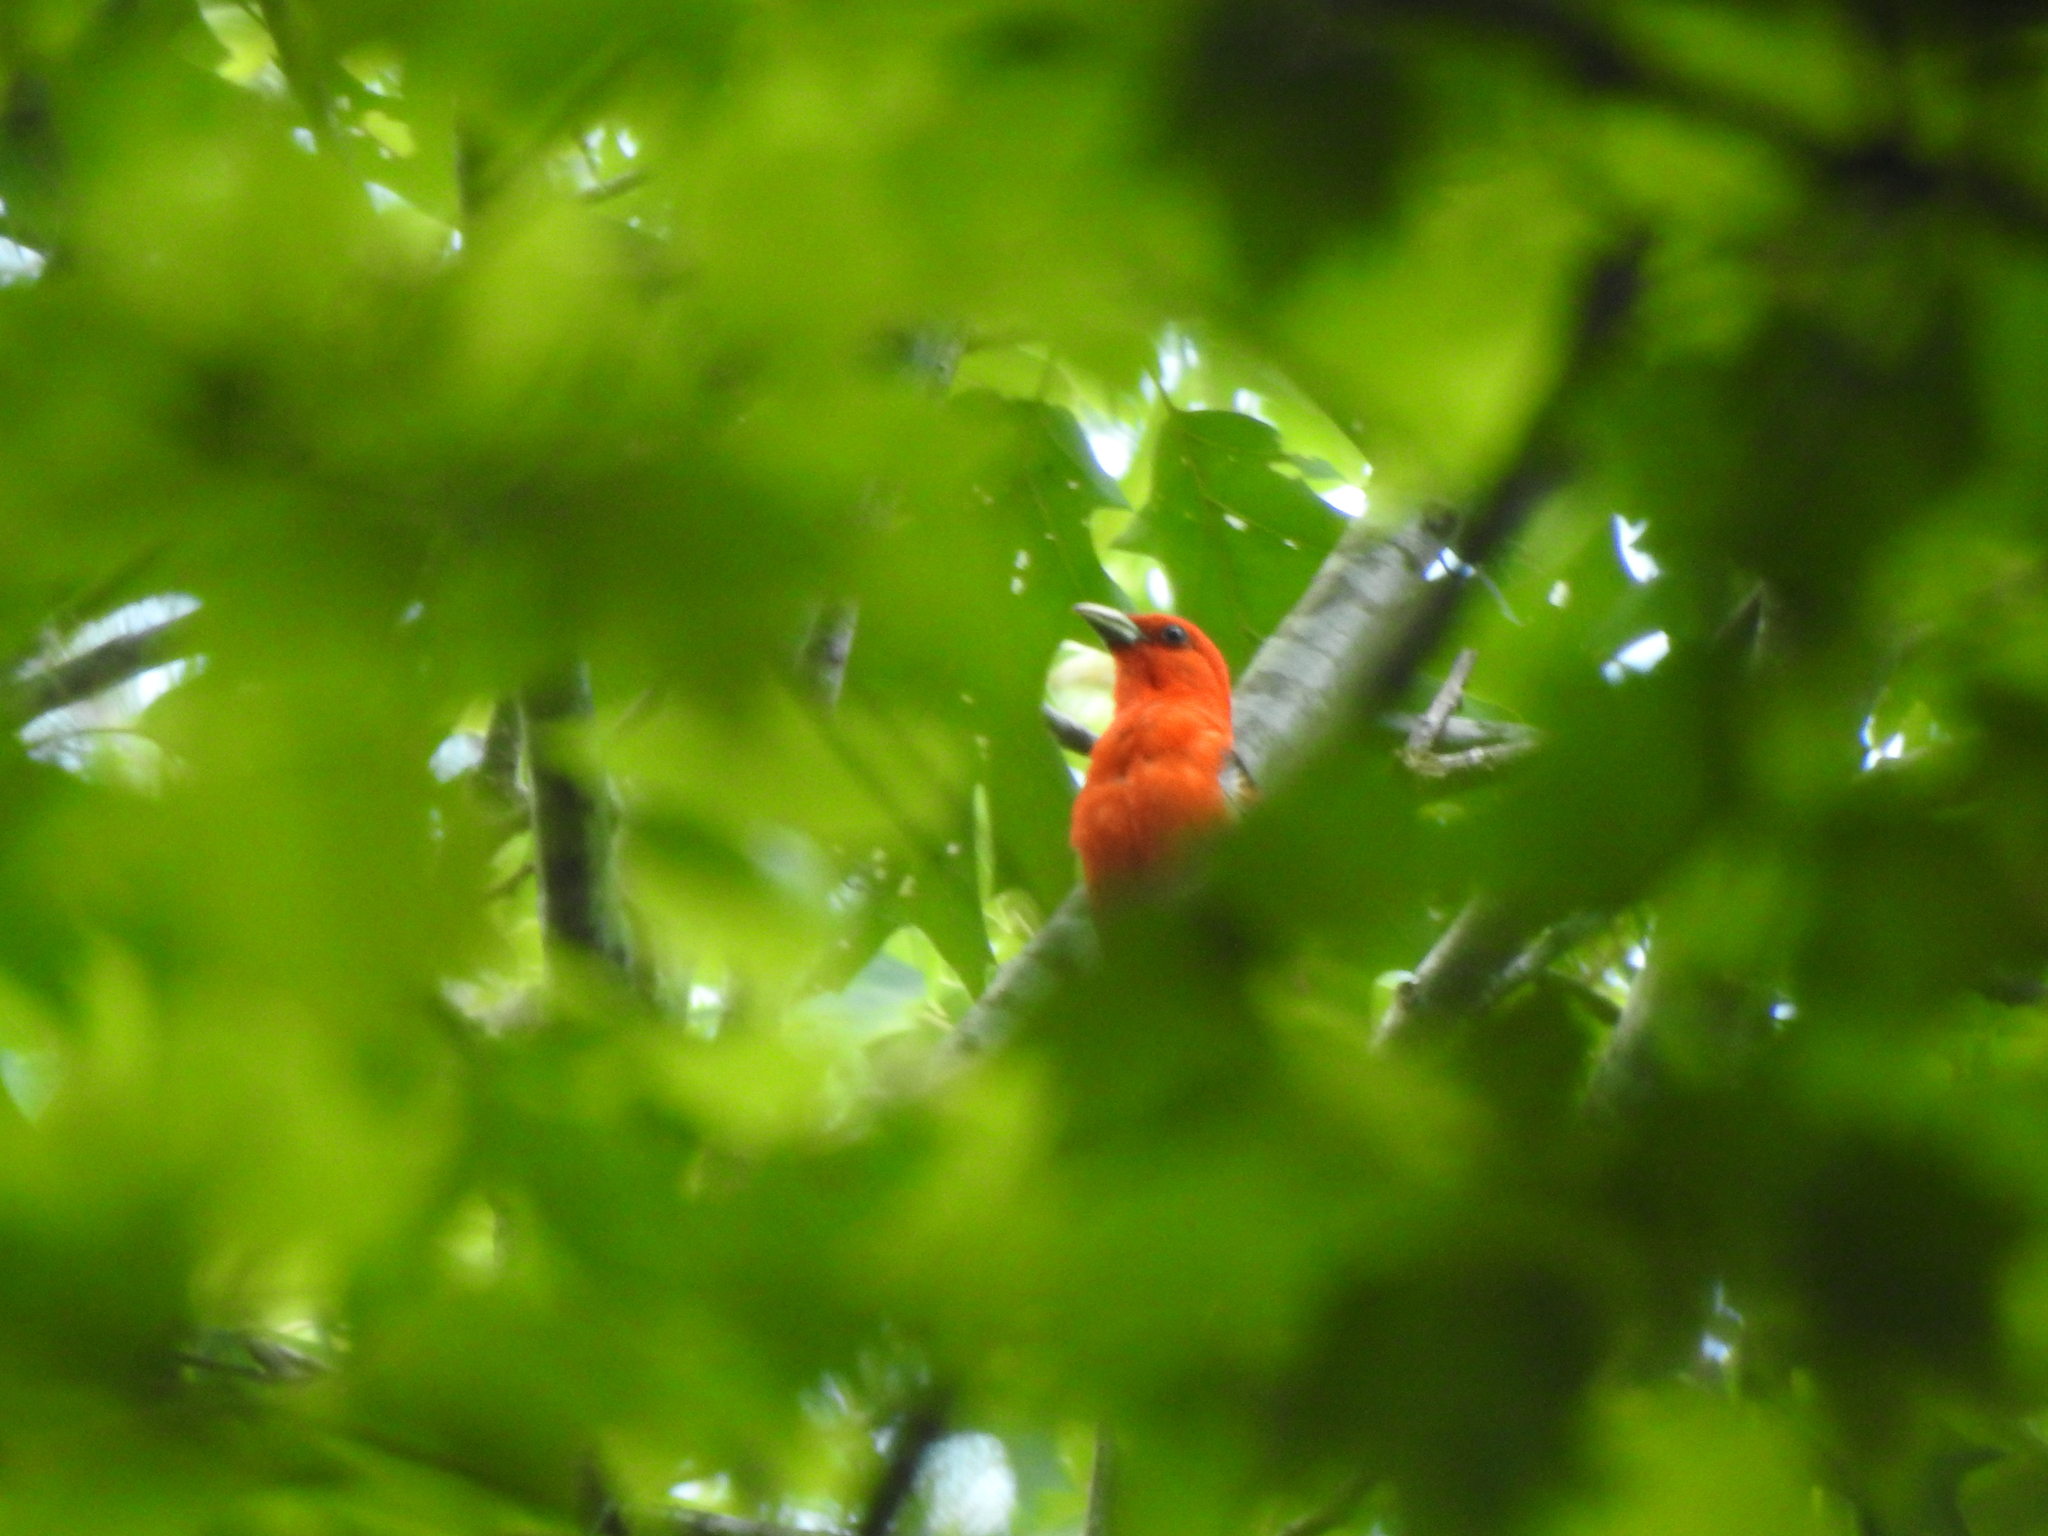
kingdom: Animalia
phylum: Chordata
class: Aves
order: Passeriformes
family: Cardinalidae
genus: Piranga
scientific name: Piranga olivacea
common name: Scarlet tanager
